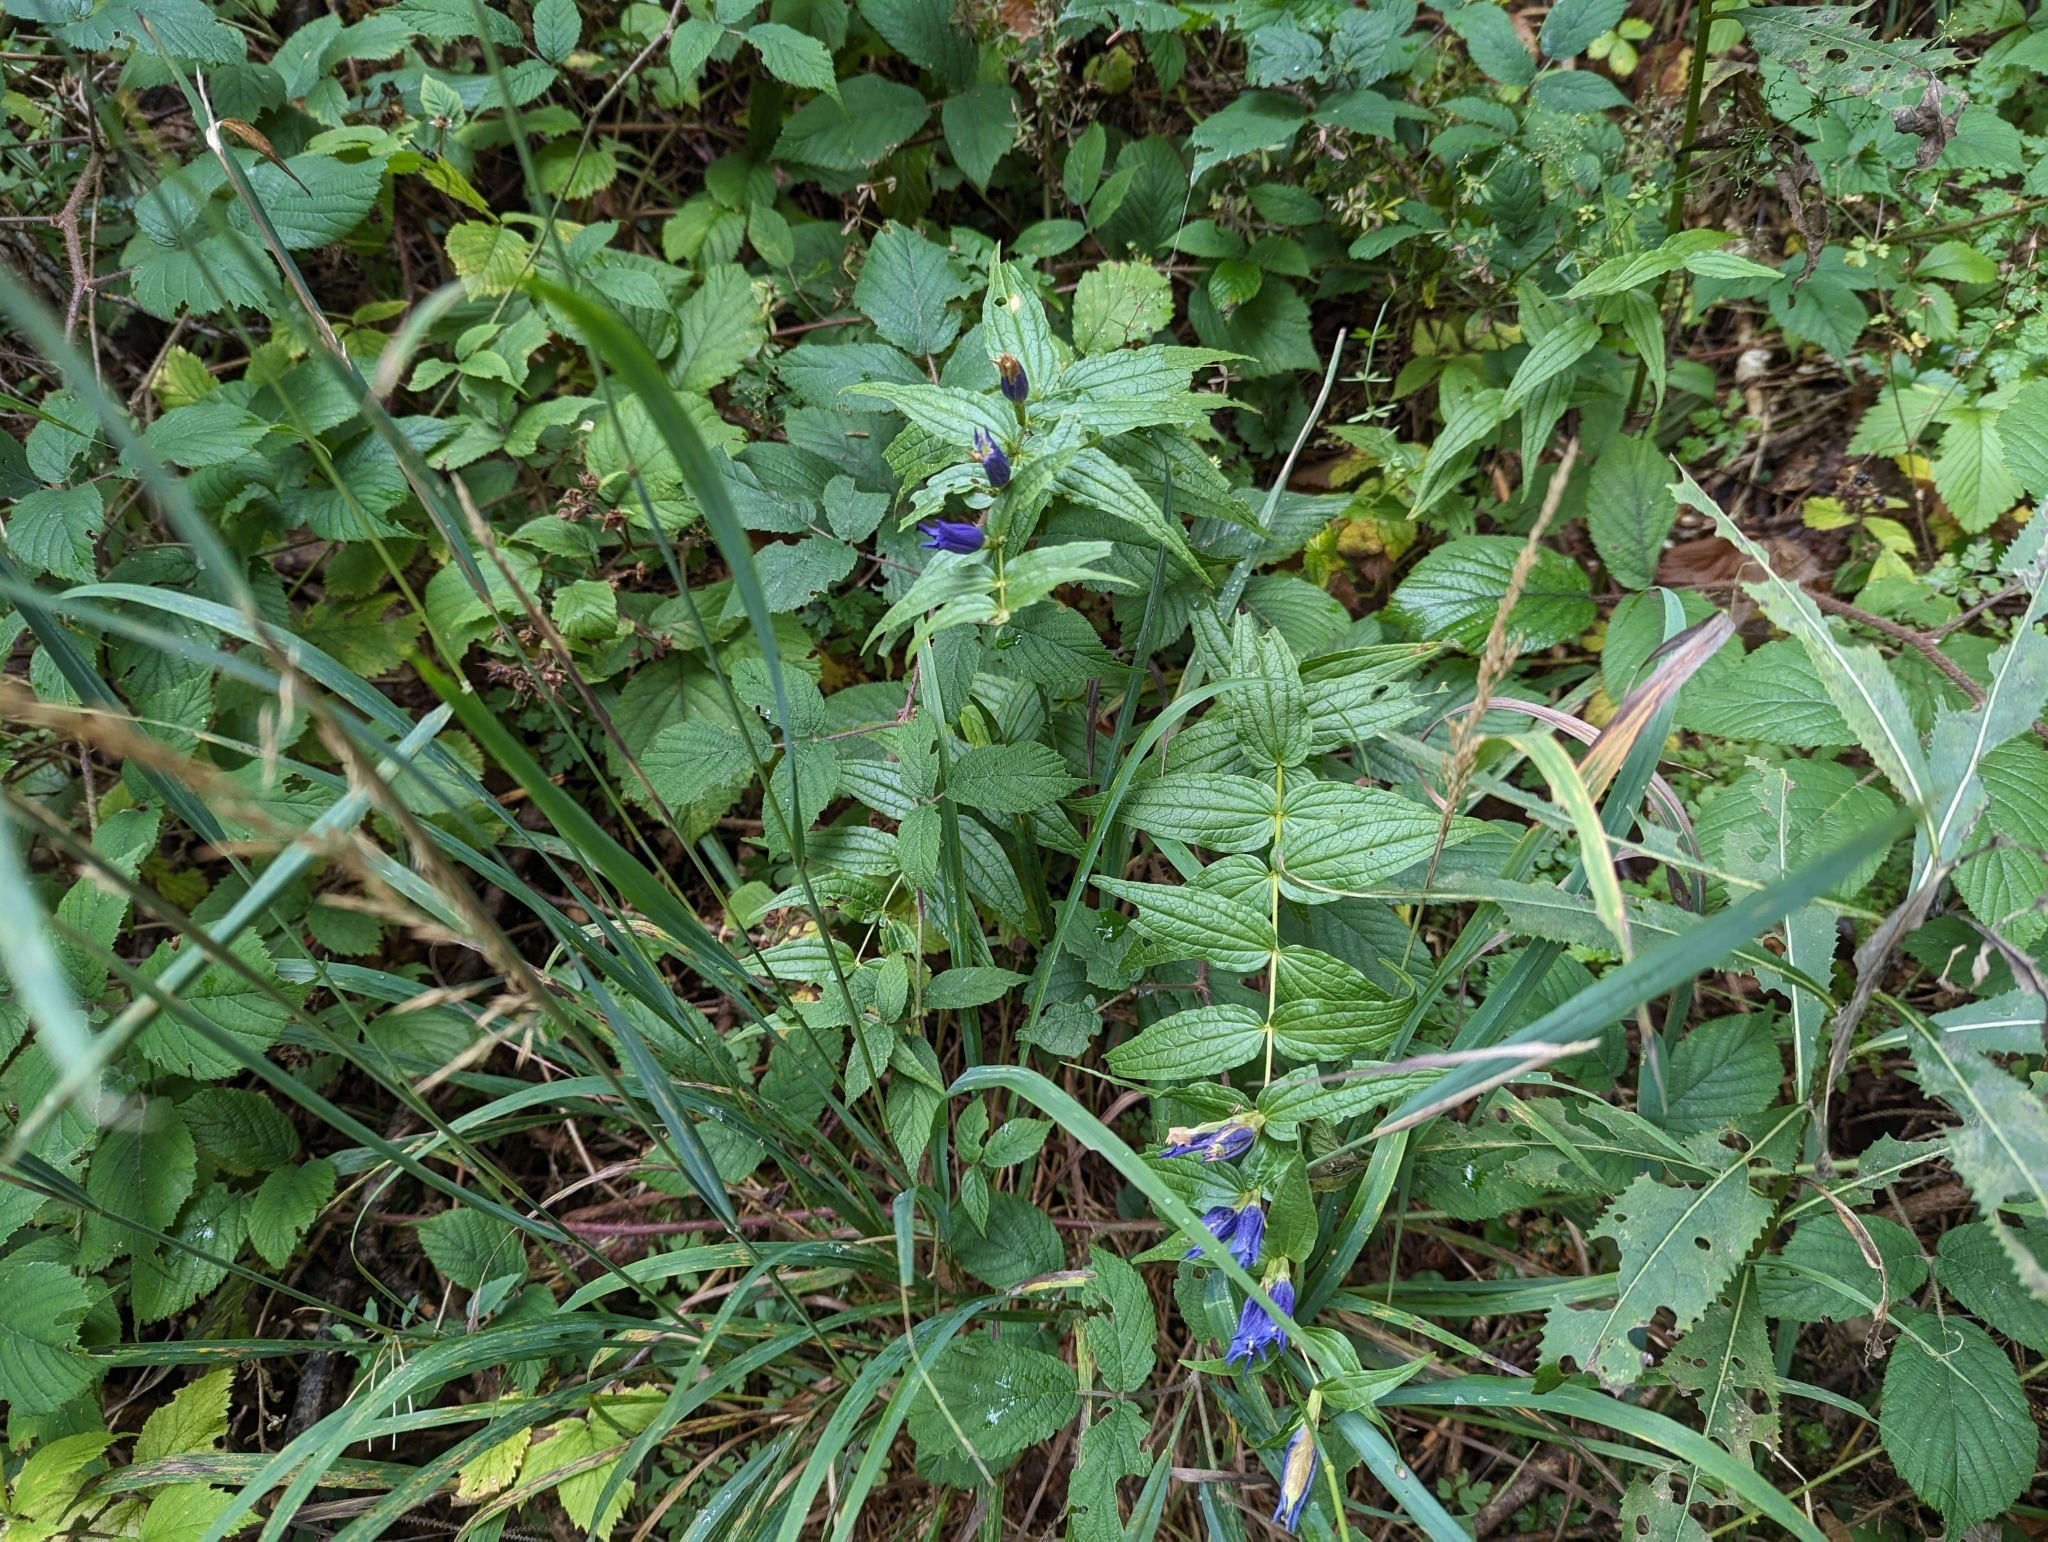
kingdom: Plantae
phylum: Tracheophyta
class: Magnoliopsida
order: Gentianales
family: Gentianaceae
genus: Gentiana
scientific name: Gentiana asclepiadea
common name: Willow gentian
